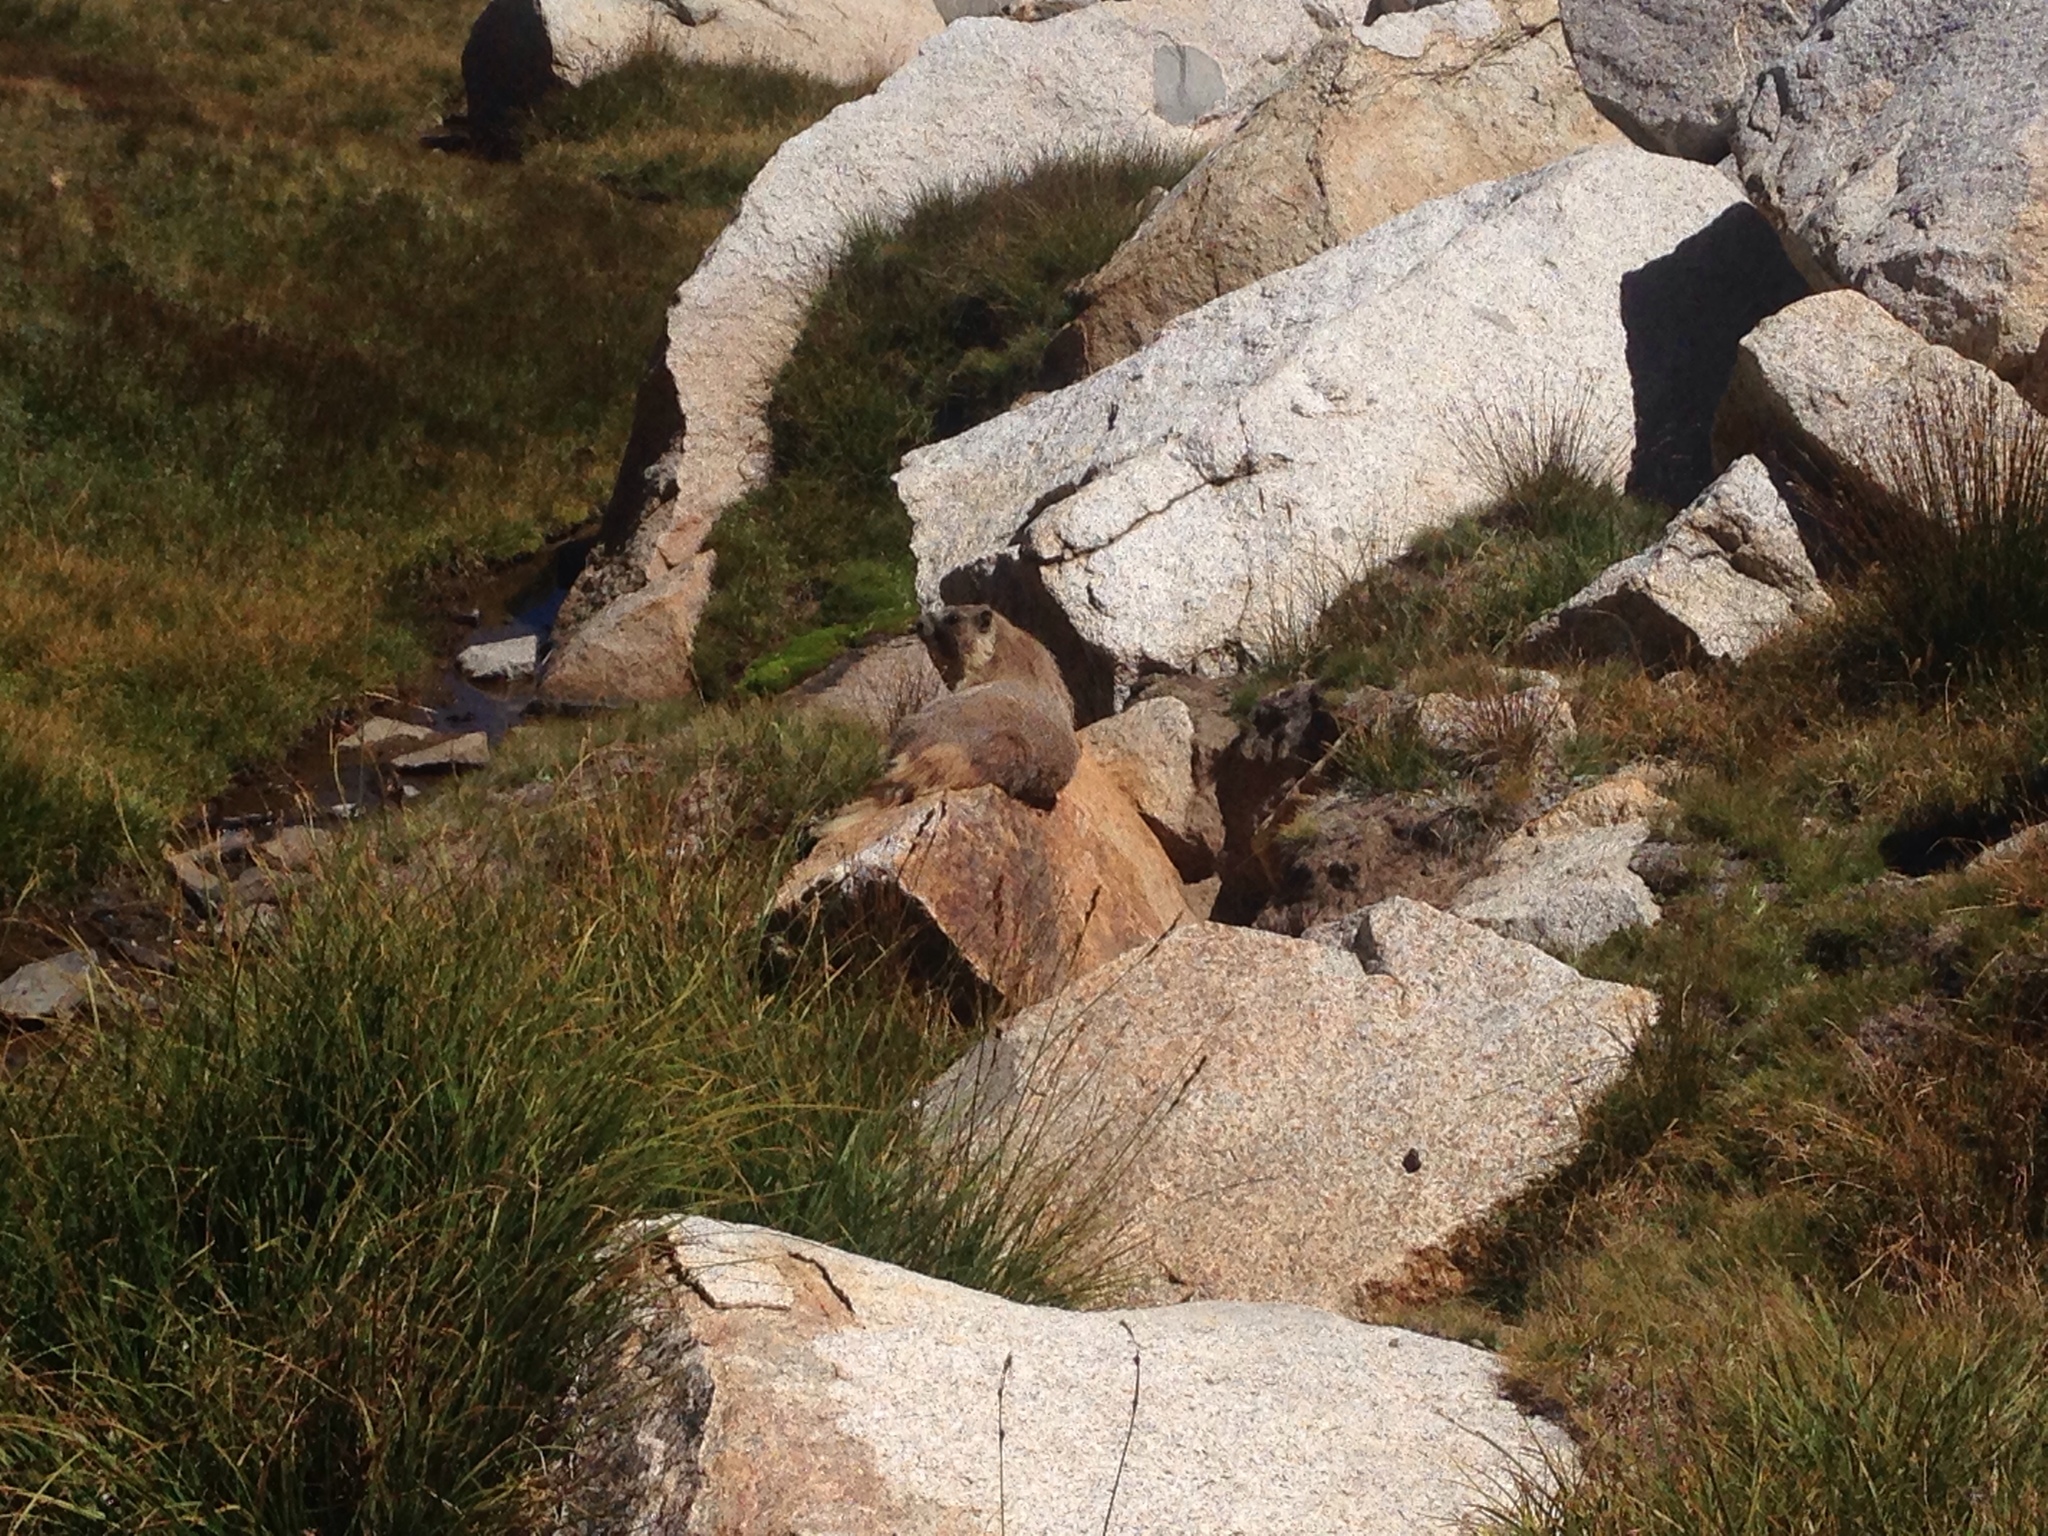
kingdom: Animalia
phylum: Chordata
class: Mammalia
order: Rodentia
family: Sciuridae
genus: Marmota
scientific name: Marmota flaviventris
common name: Yellow-bellied marmot
